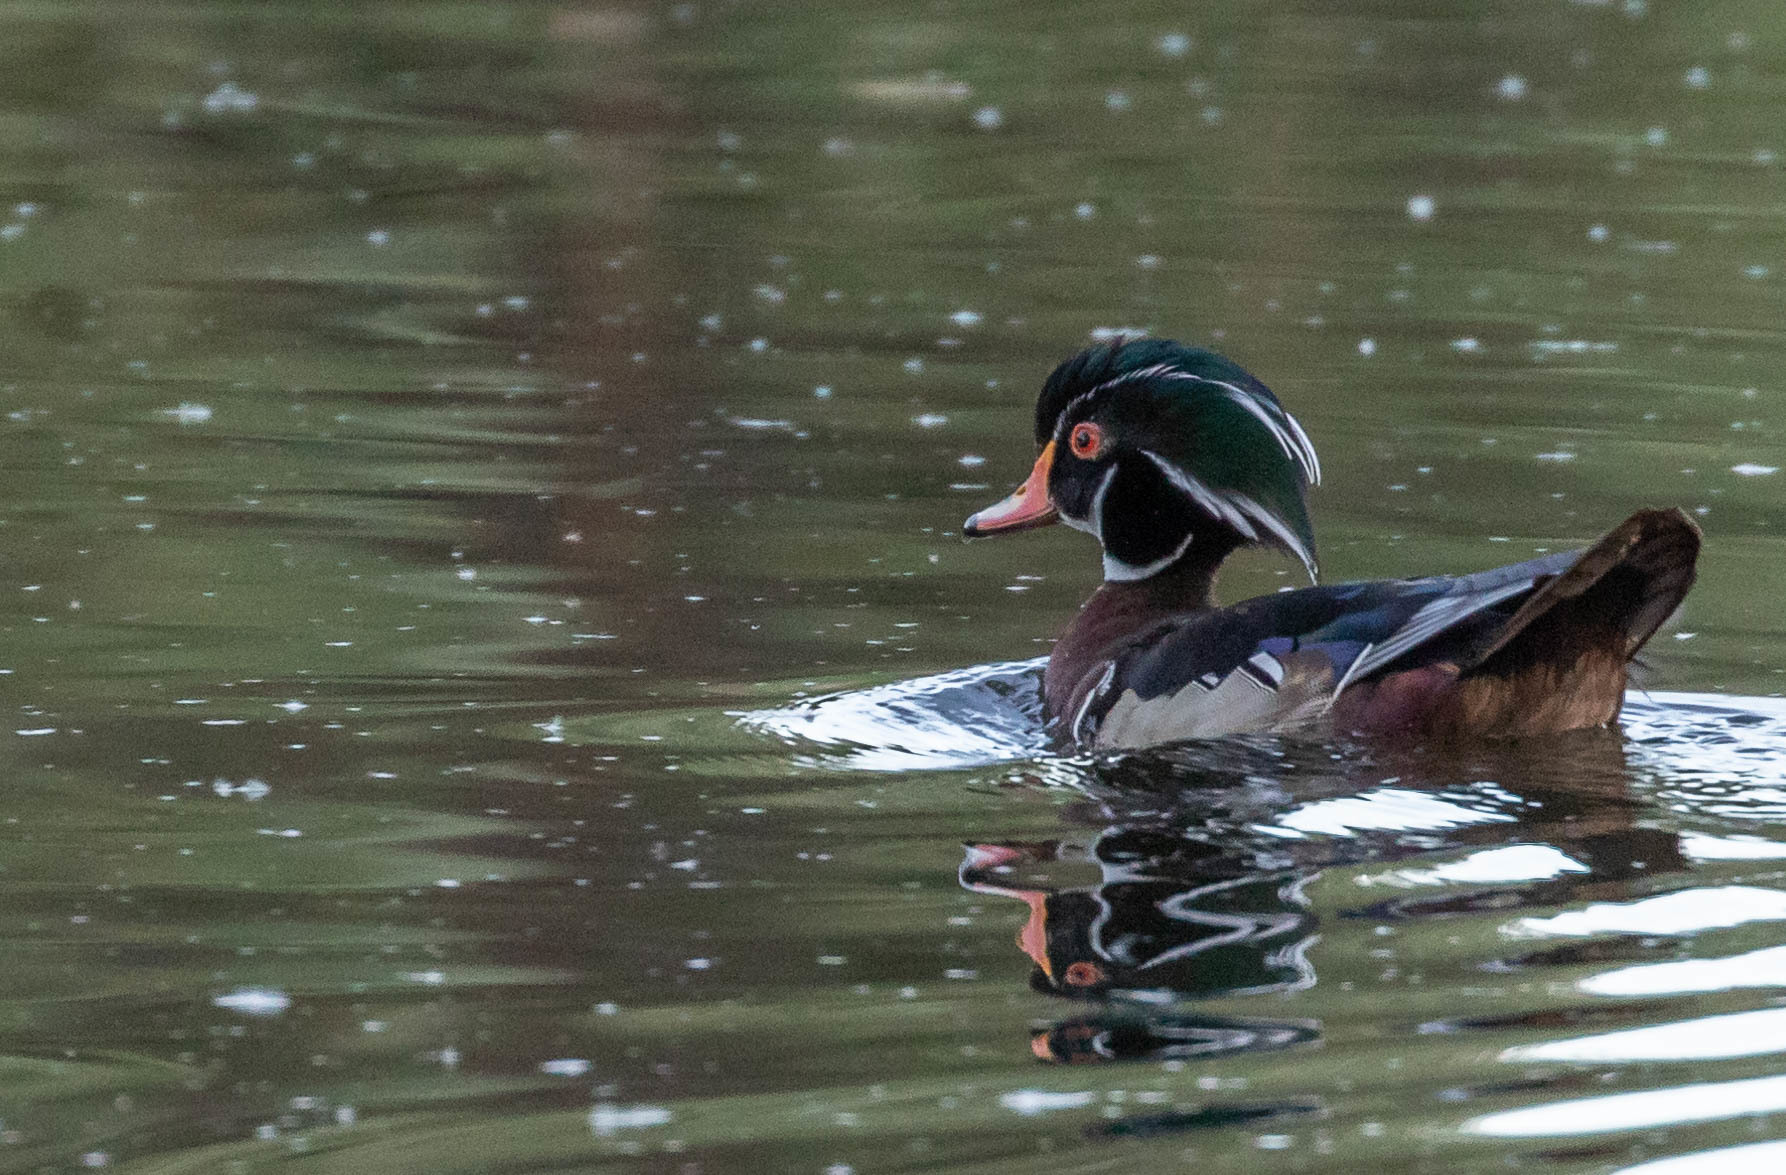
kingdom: Animalia
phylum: Chordata
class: Aves
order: Anseriformes
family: Anatidae
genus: Aix
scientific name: Aix sponsa
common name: Wood duck
